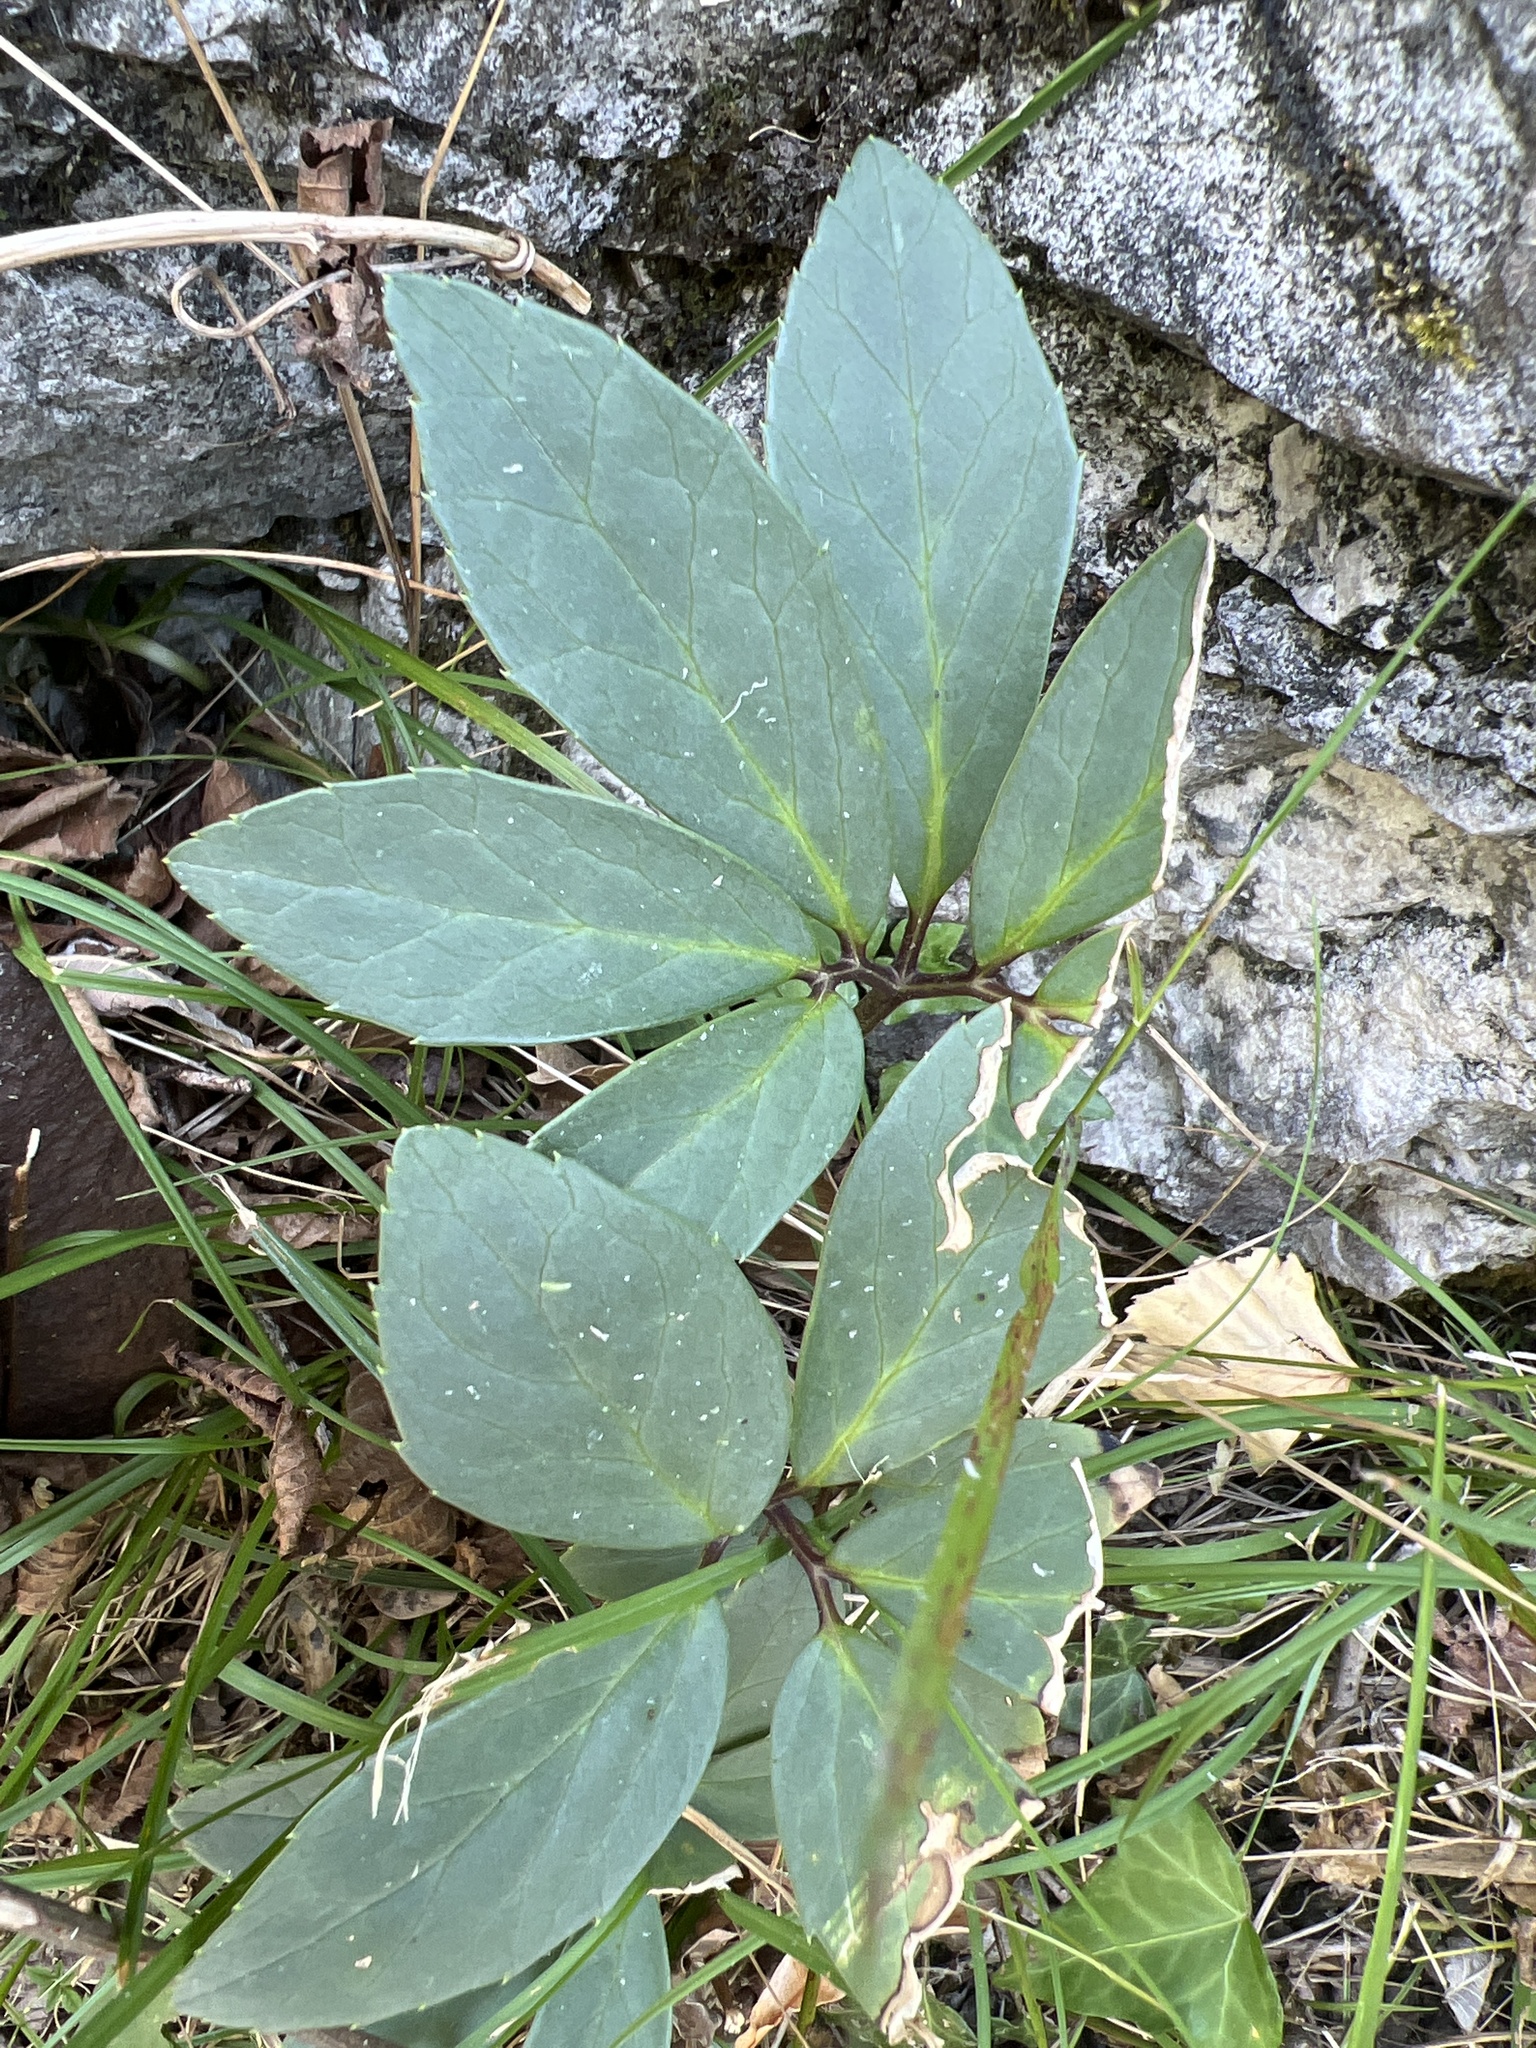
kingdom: Plantae
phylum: Tracheophyta
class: Magnoliopsida
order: Ranunculales
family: Ranunculaceae
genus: Helleborus
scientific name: Helleborus niger
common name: Black hellebore
